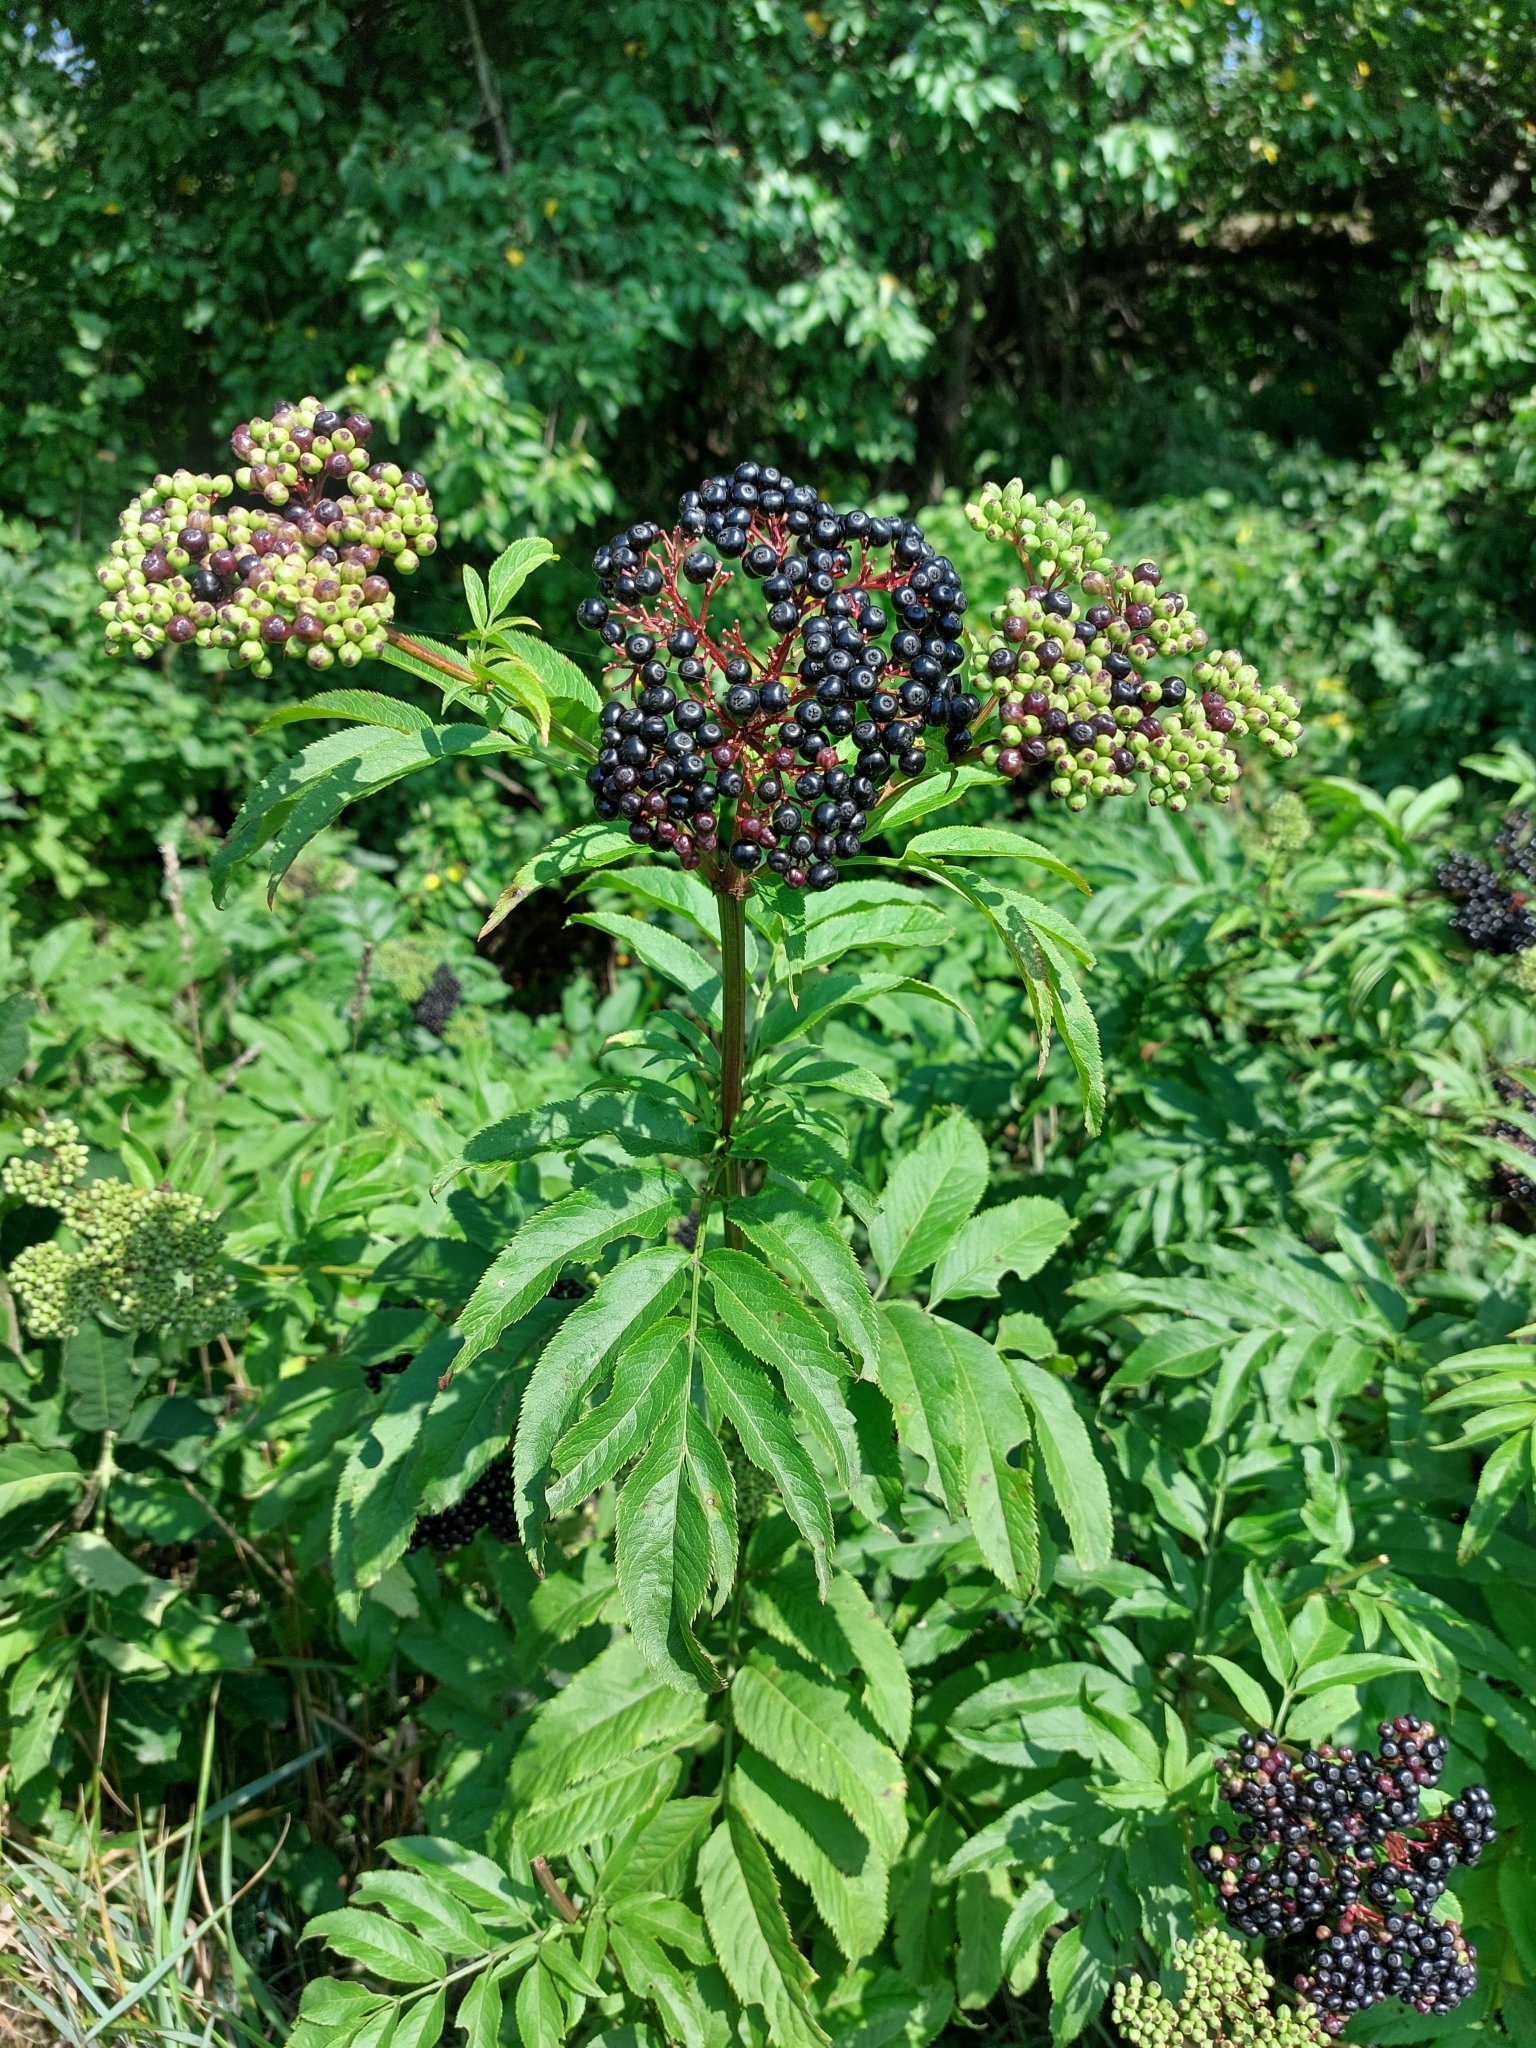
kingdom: Plantae
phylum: Tracheophyta
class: Magnoliopsida
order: Dipsacales
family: Viburnaceae
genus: Sambucus
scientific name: Sambucus ebulus
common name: Dwarf elder
